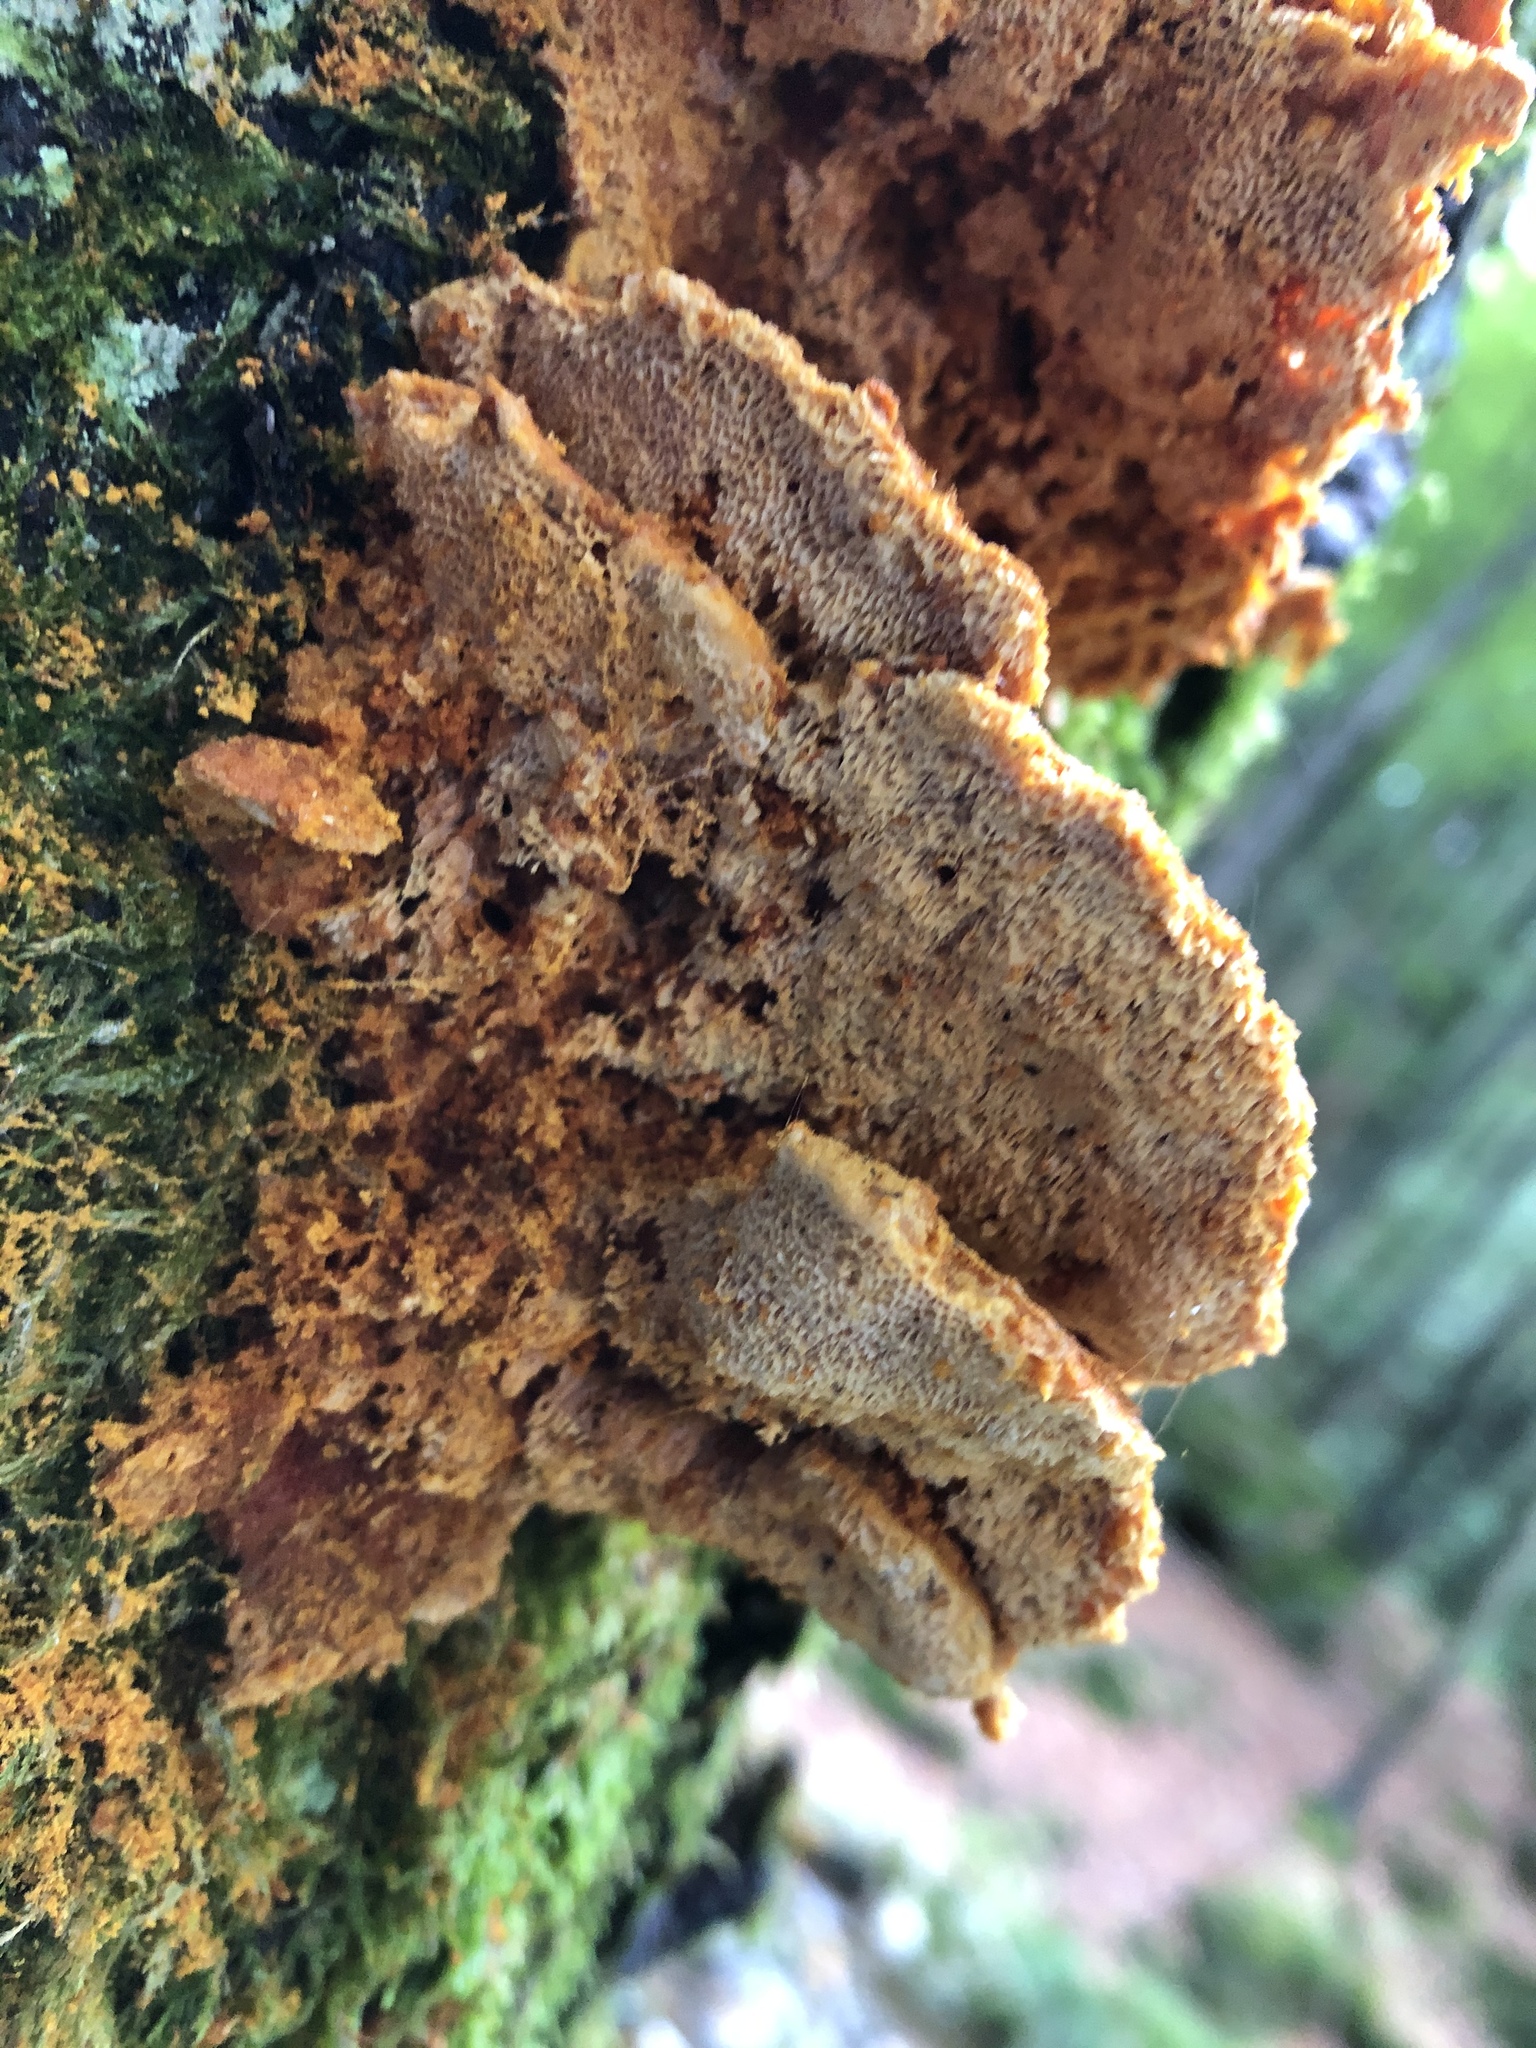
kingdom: Fungi
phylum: Basidiomycota
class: Agaricomycetes
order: Polyporales
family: Pycnoporellaceae
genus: Pycnoporellus
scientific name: Pycnoporellus fulgens
